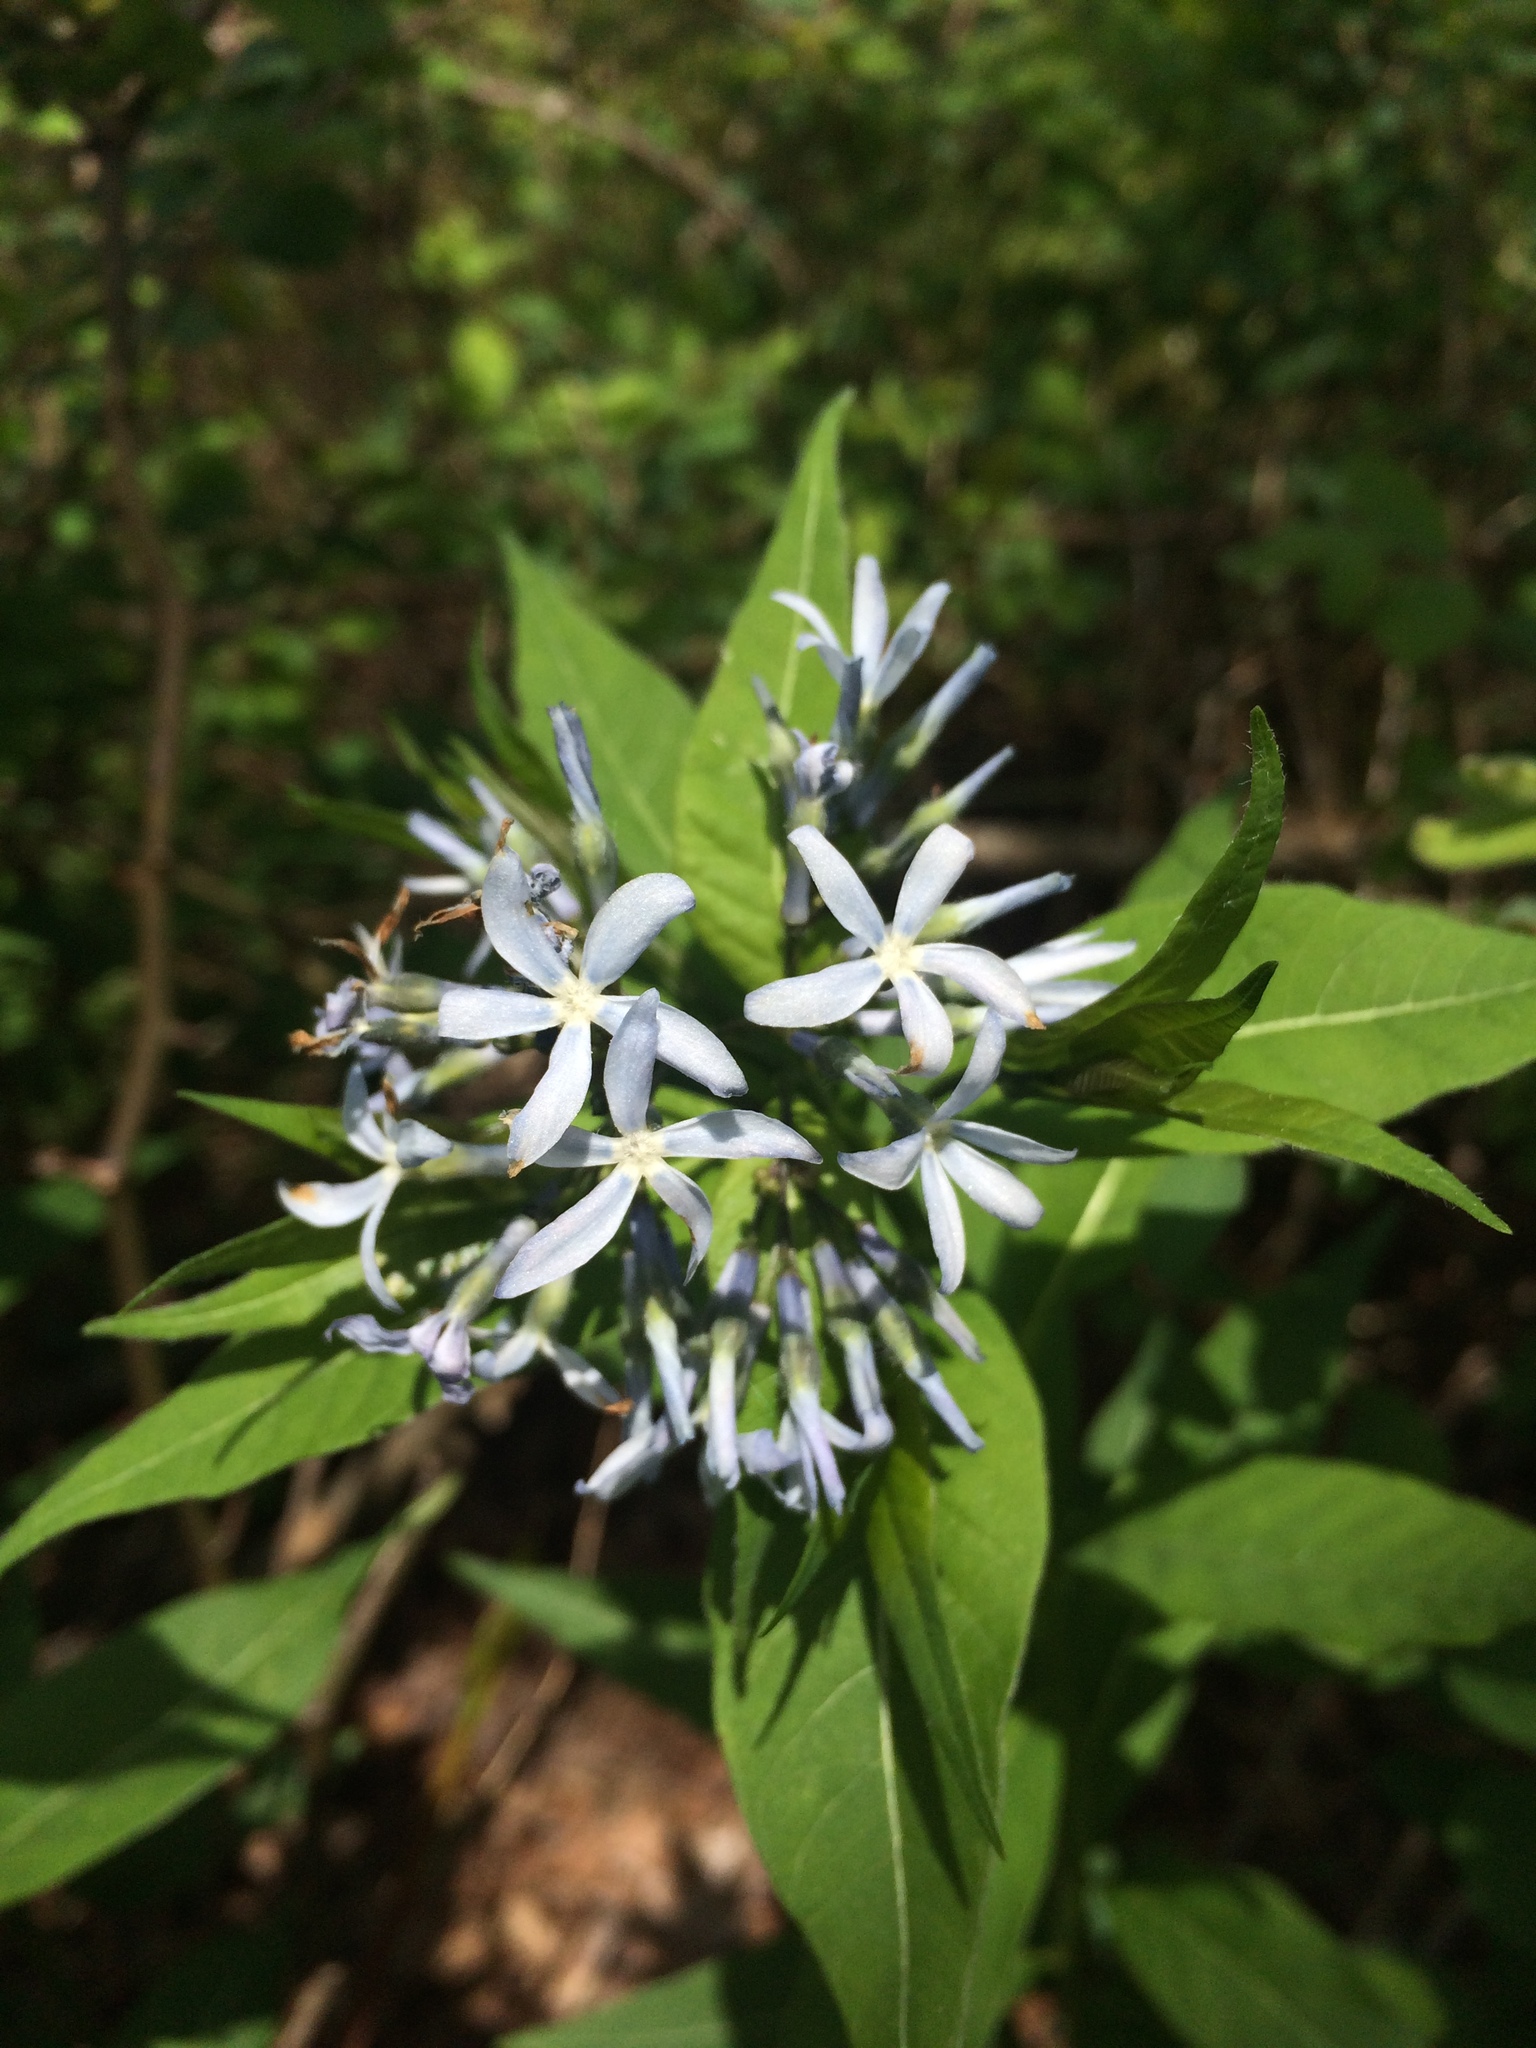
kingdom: Plantae
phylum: Tracheophyta
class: Magnoliopsida
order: Gentianales
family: Apocynaceae
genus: Amsonia
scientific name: Amsonia tabernaemontana
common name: Texas-star
